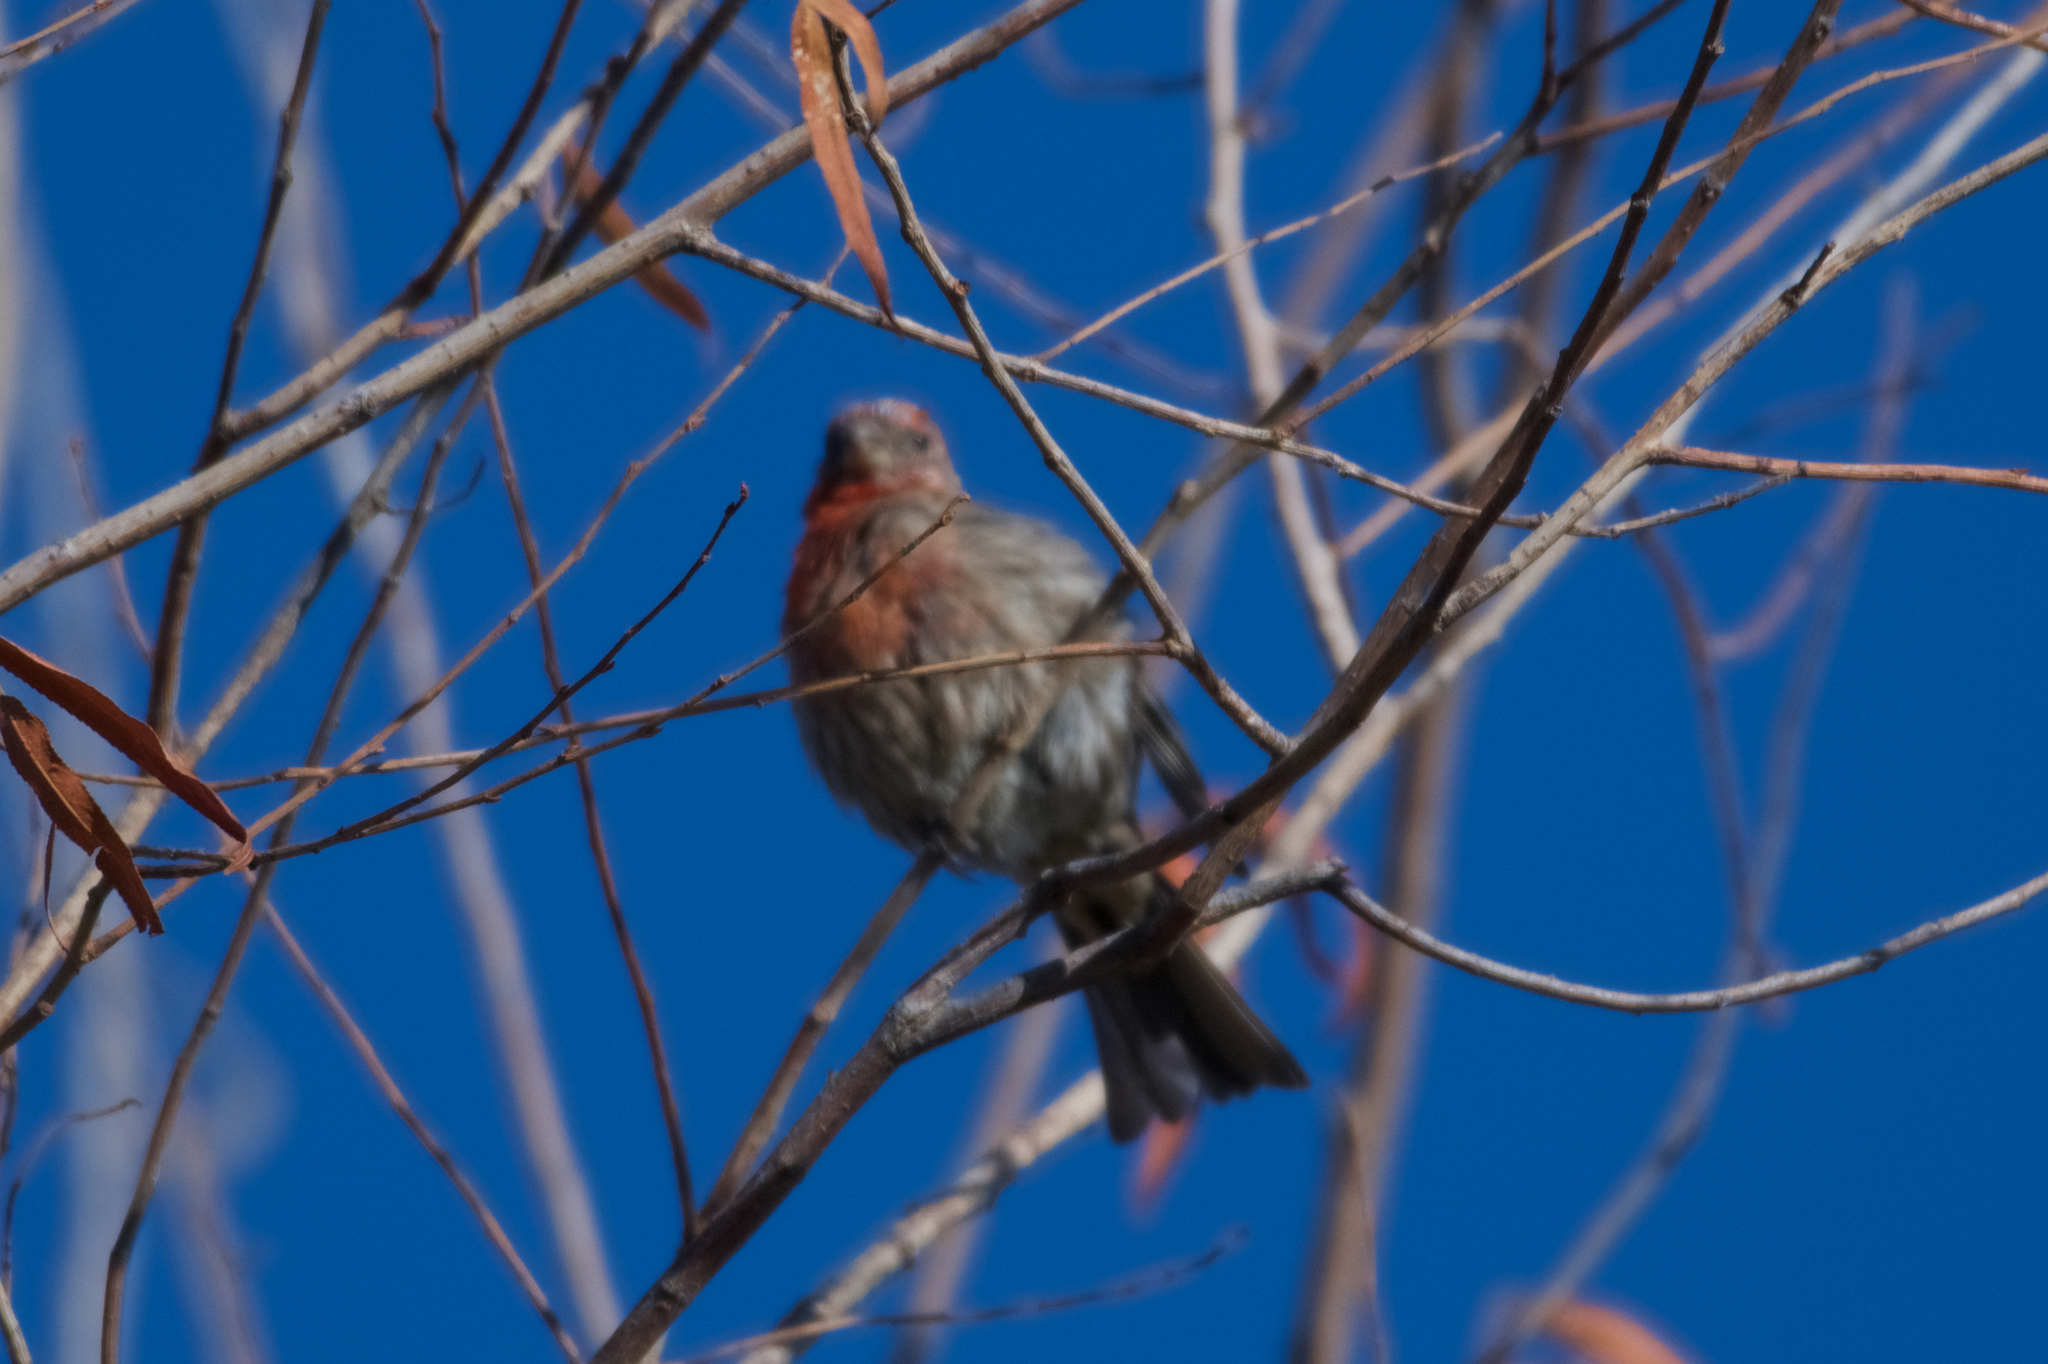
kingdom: Animalia
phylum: Chordata
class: Aves
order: Passeriformes
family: Fringillidae
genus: Haemorhous
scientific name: Haemorhous mexicanus
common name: House finch
